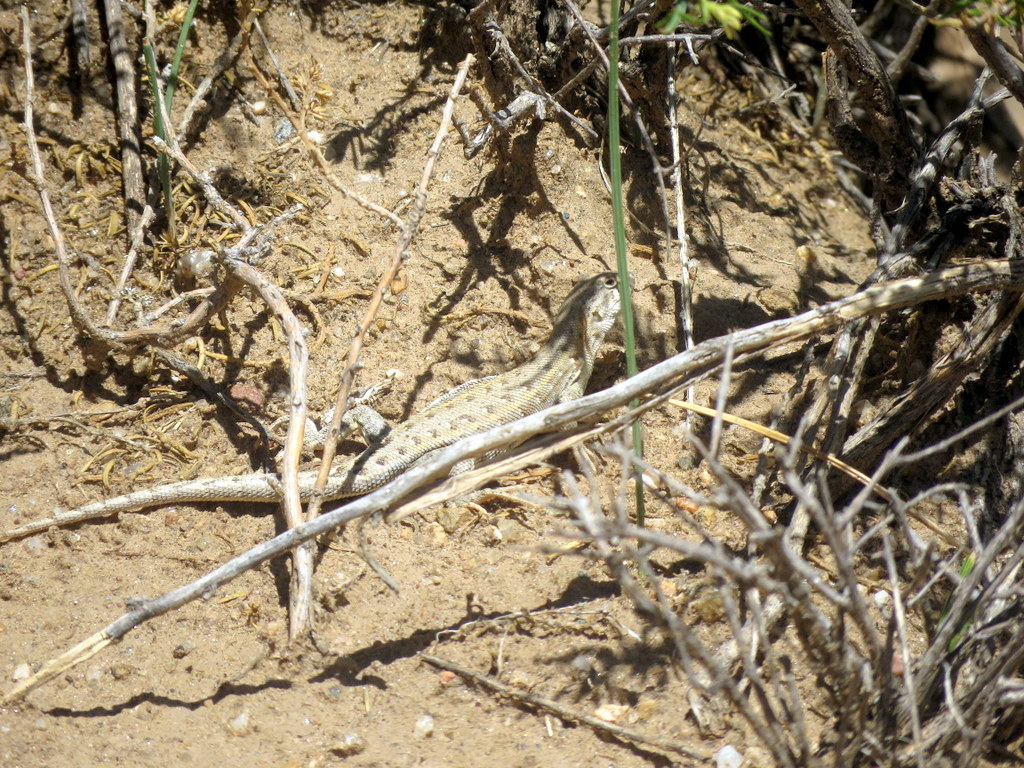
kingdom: Animalia
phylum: Chordata
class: Squamata
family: Liolaemidae
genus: Liolaemus
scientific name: Liolaemus quilmes
